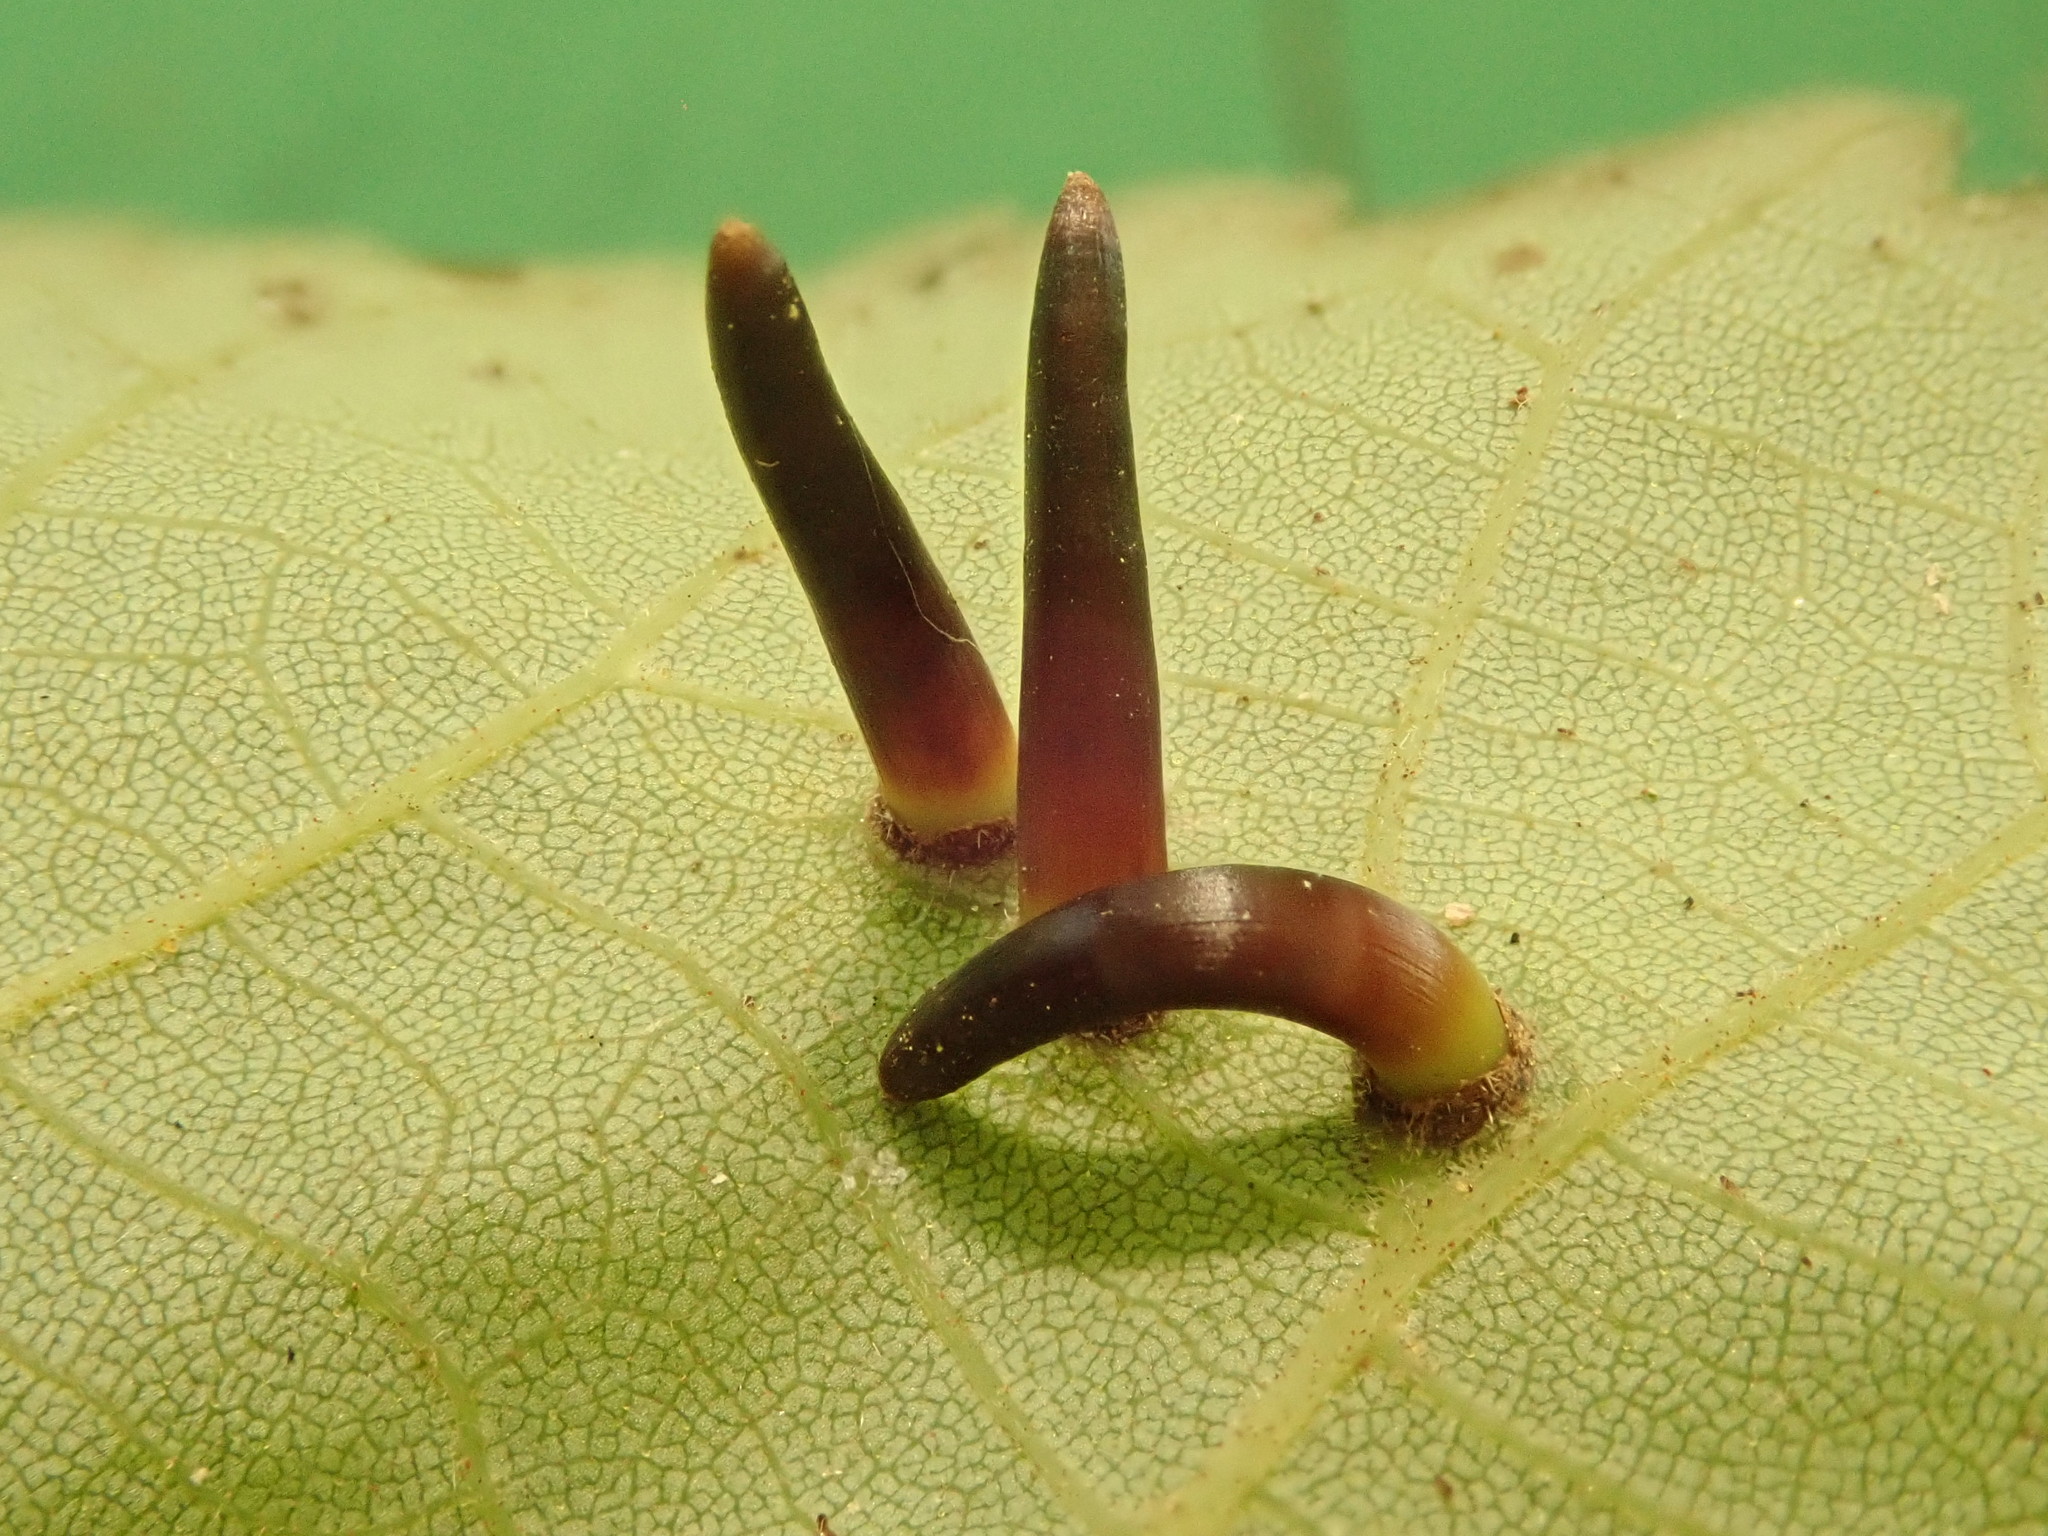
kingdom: Animalia
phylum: Arthropoda
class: Insecta
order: Diptera
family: Cecidomyiidae
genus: Caryomyia
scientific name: Caryomyia subulata
